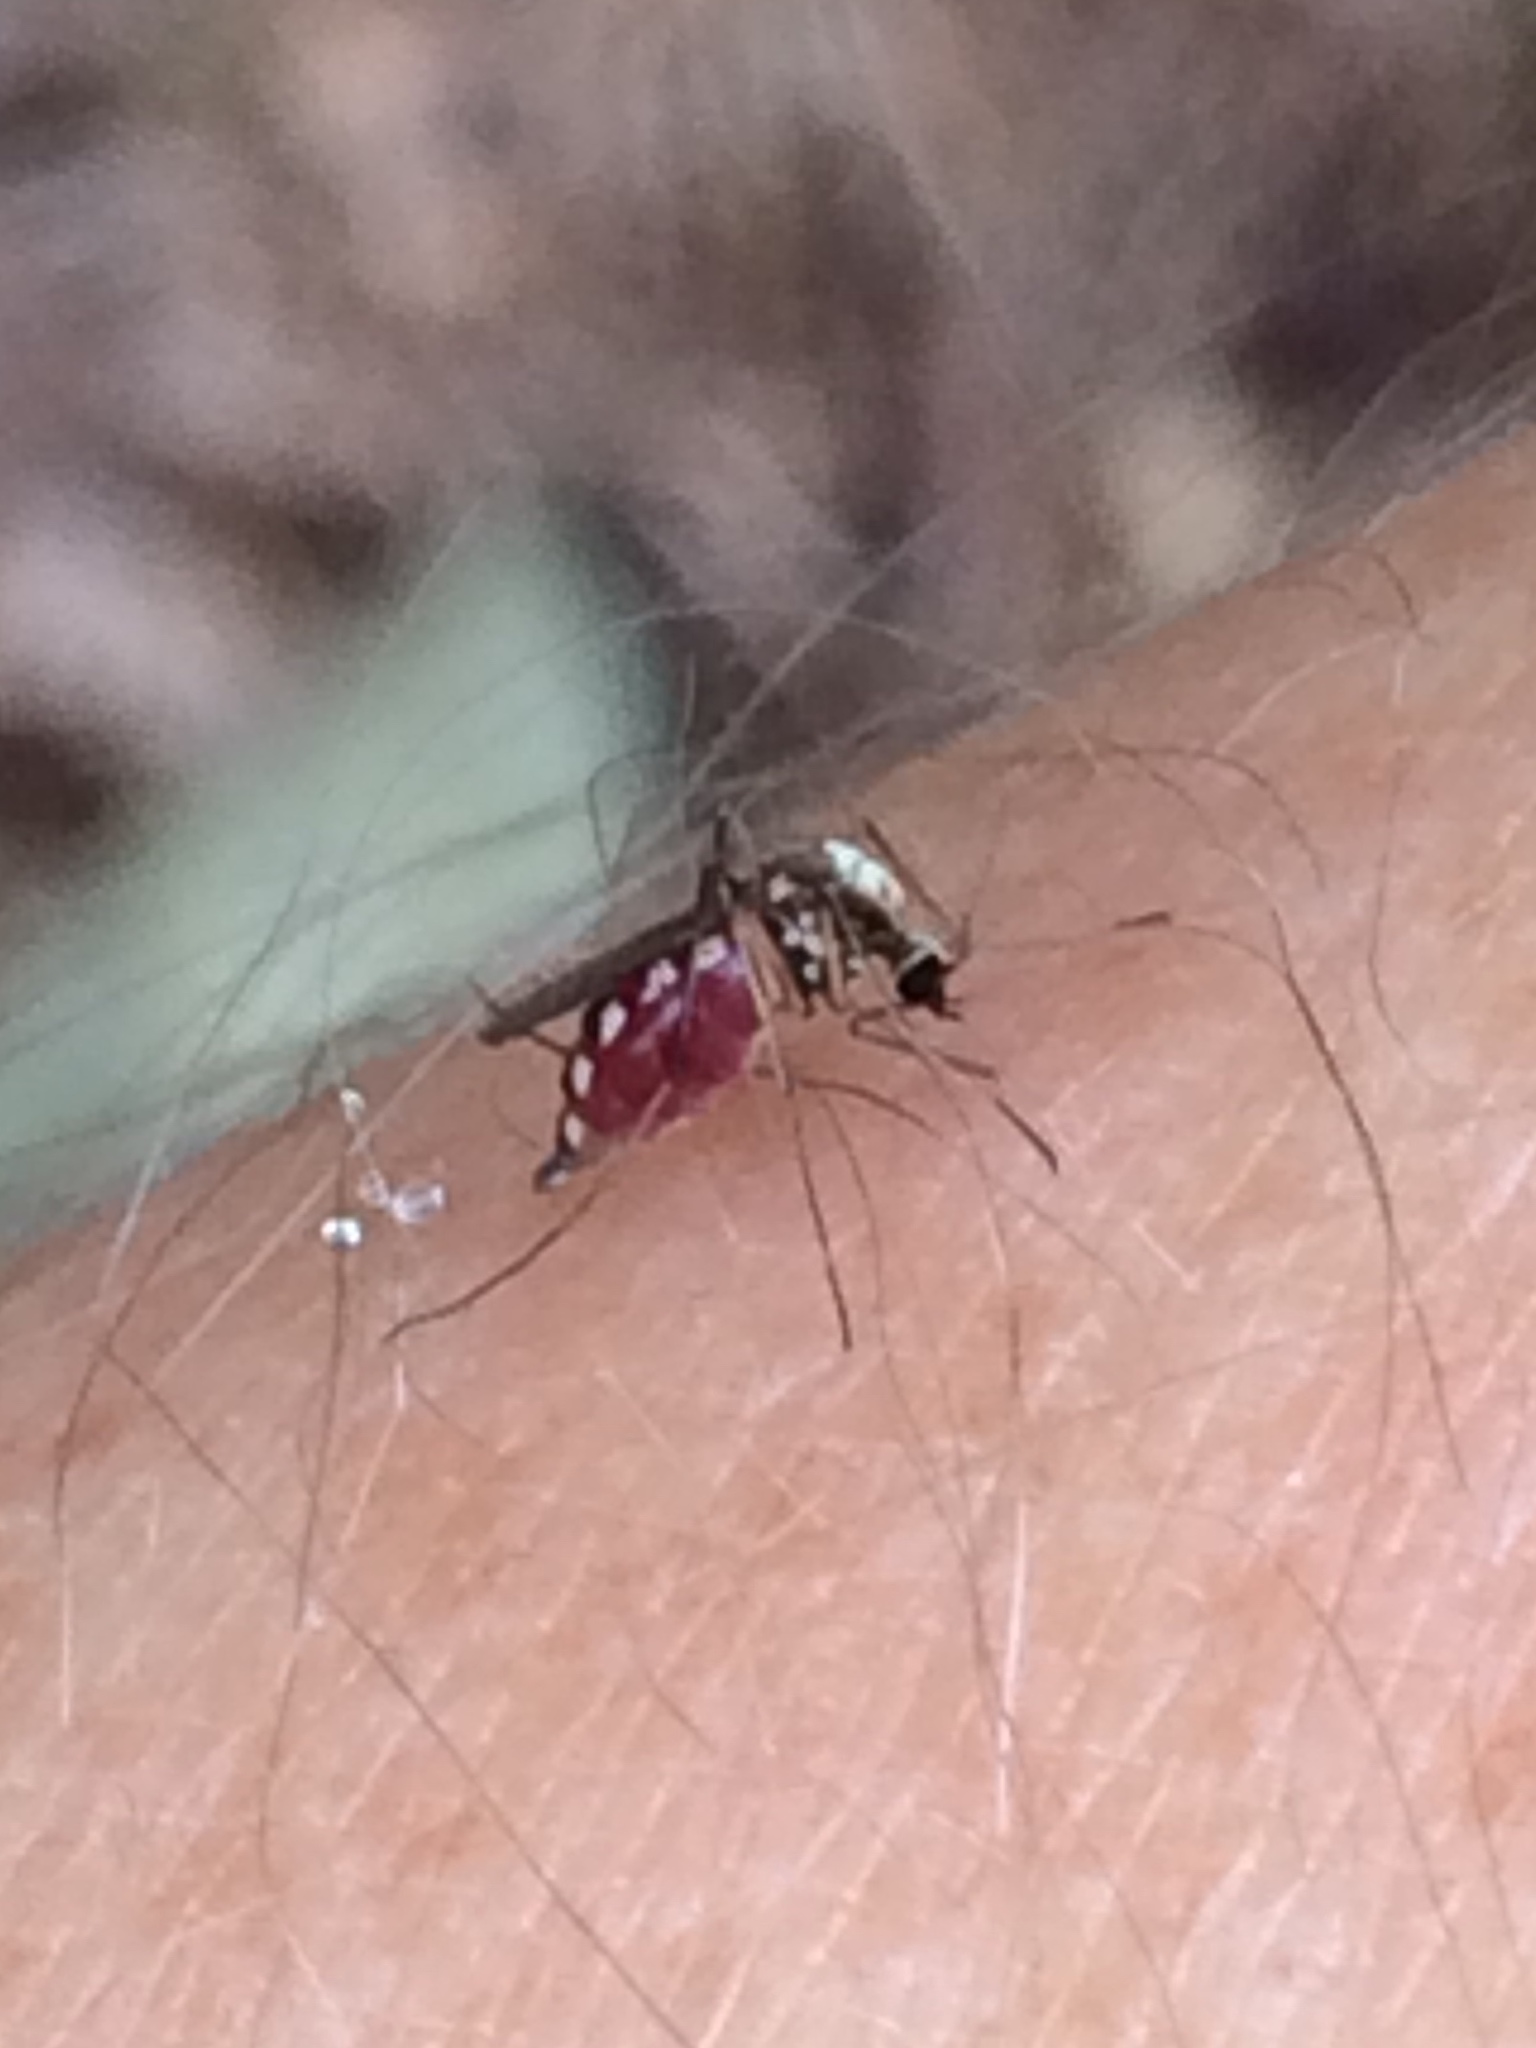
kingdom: Animalia
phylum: Arthropoda
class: Insecta
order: Diptera
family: Culicidae
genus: Aedes
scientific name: Aedes scapularis
